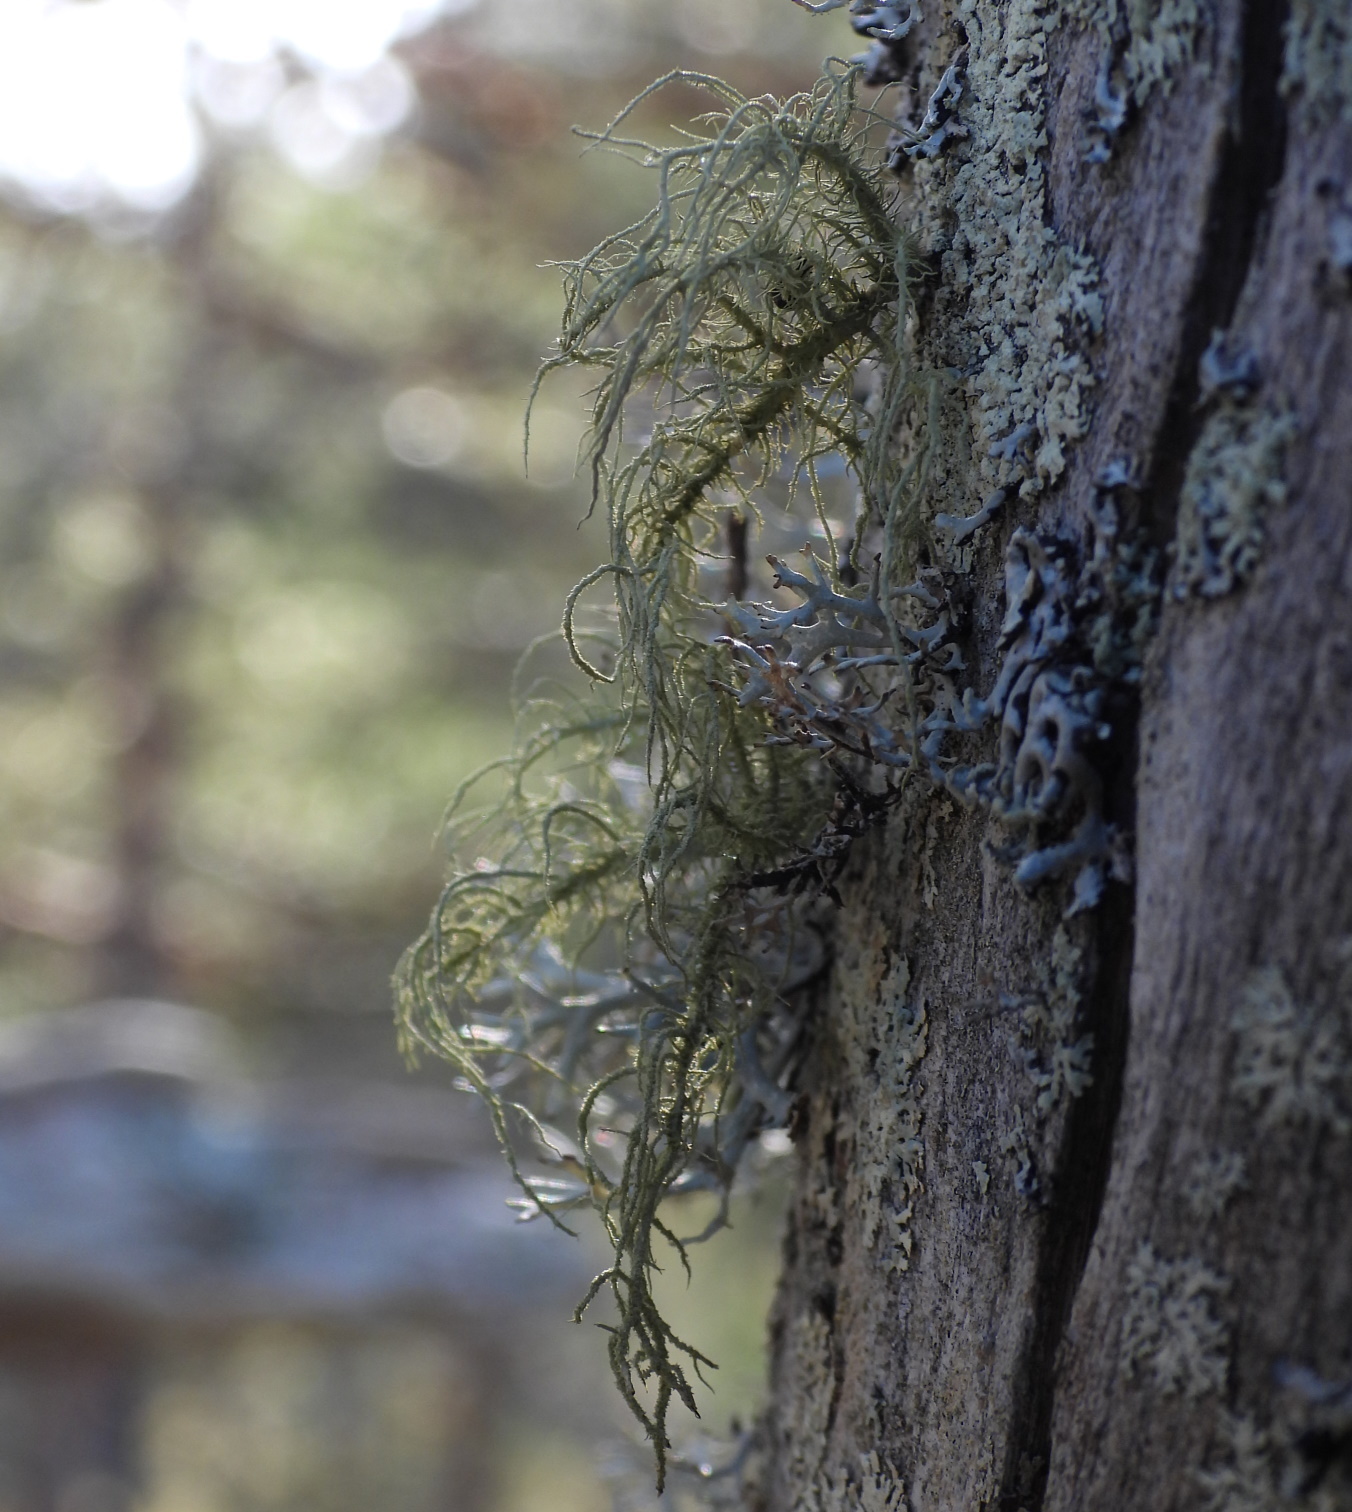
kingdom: Fungi
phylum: Ascomycota
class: Lecanoromycetes
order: Lecanorales
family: Parmeliaceae
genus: Usnea
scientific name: Usnea hirta
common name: Bristly beard lichen
